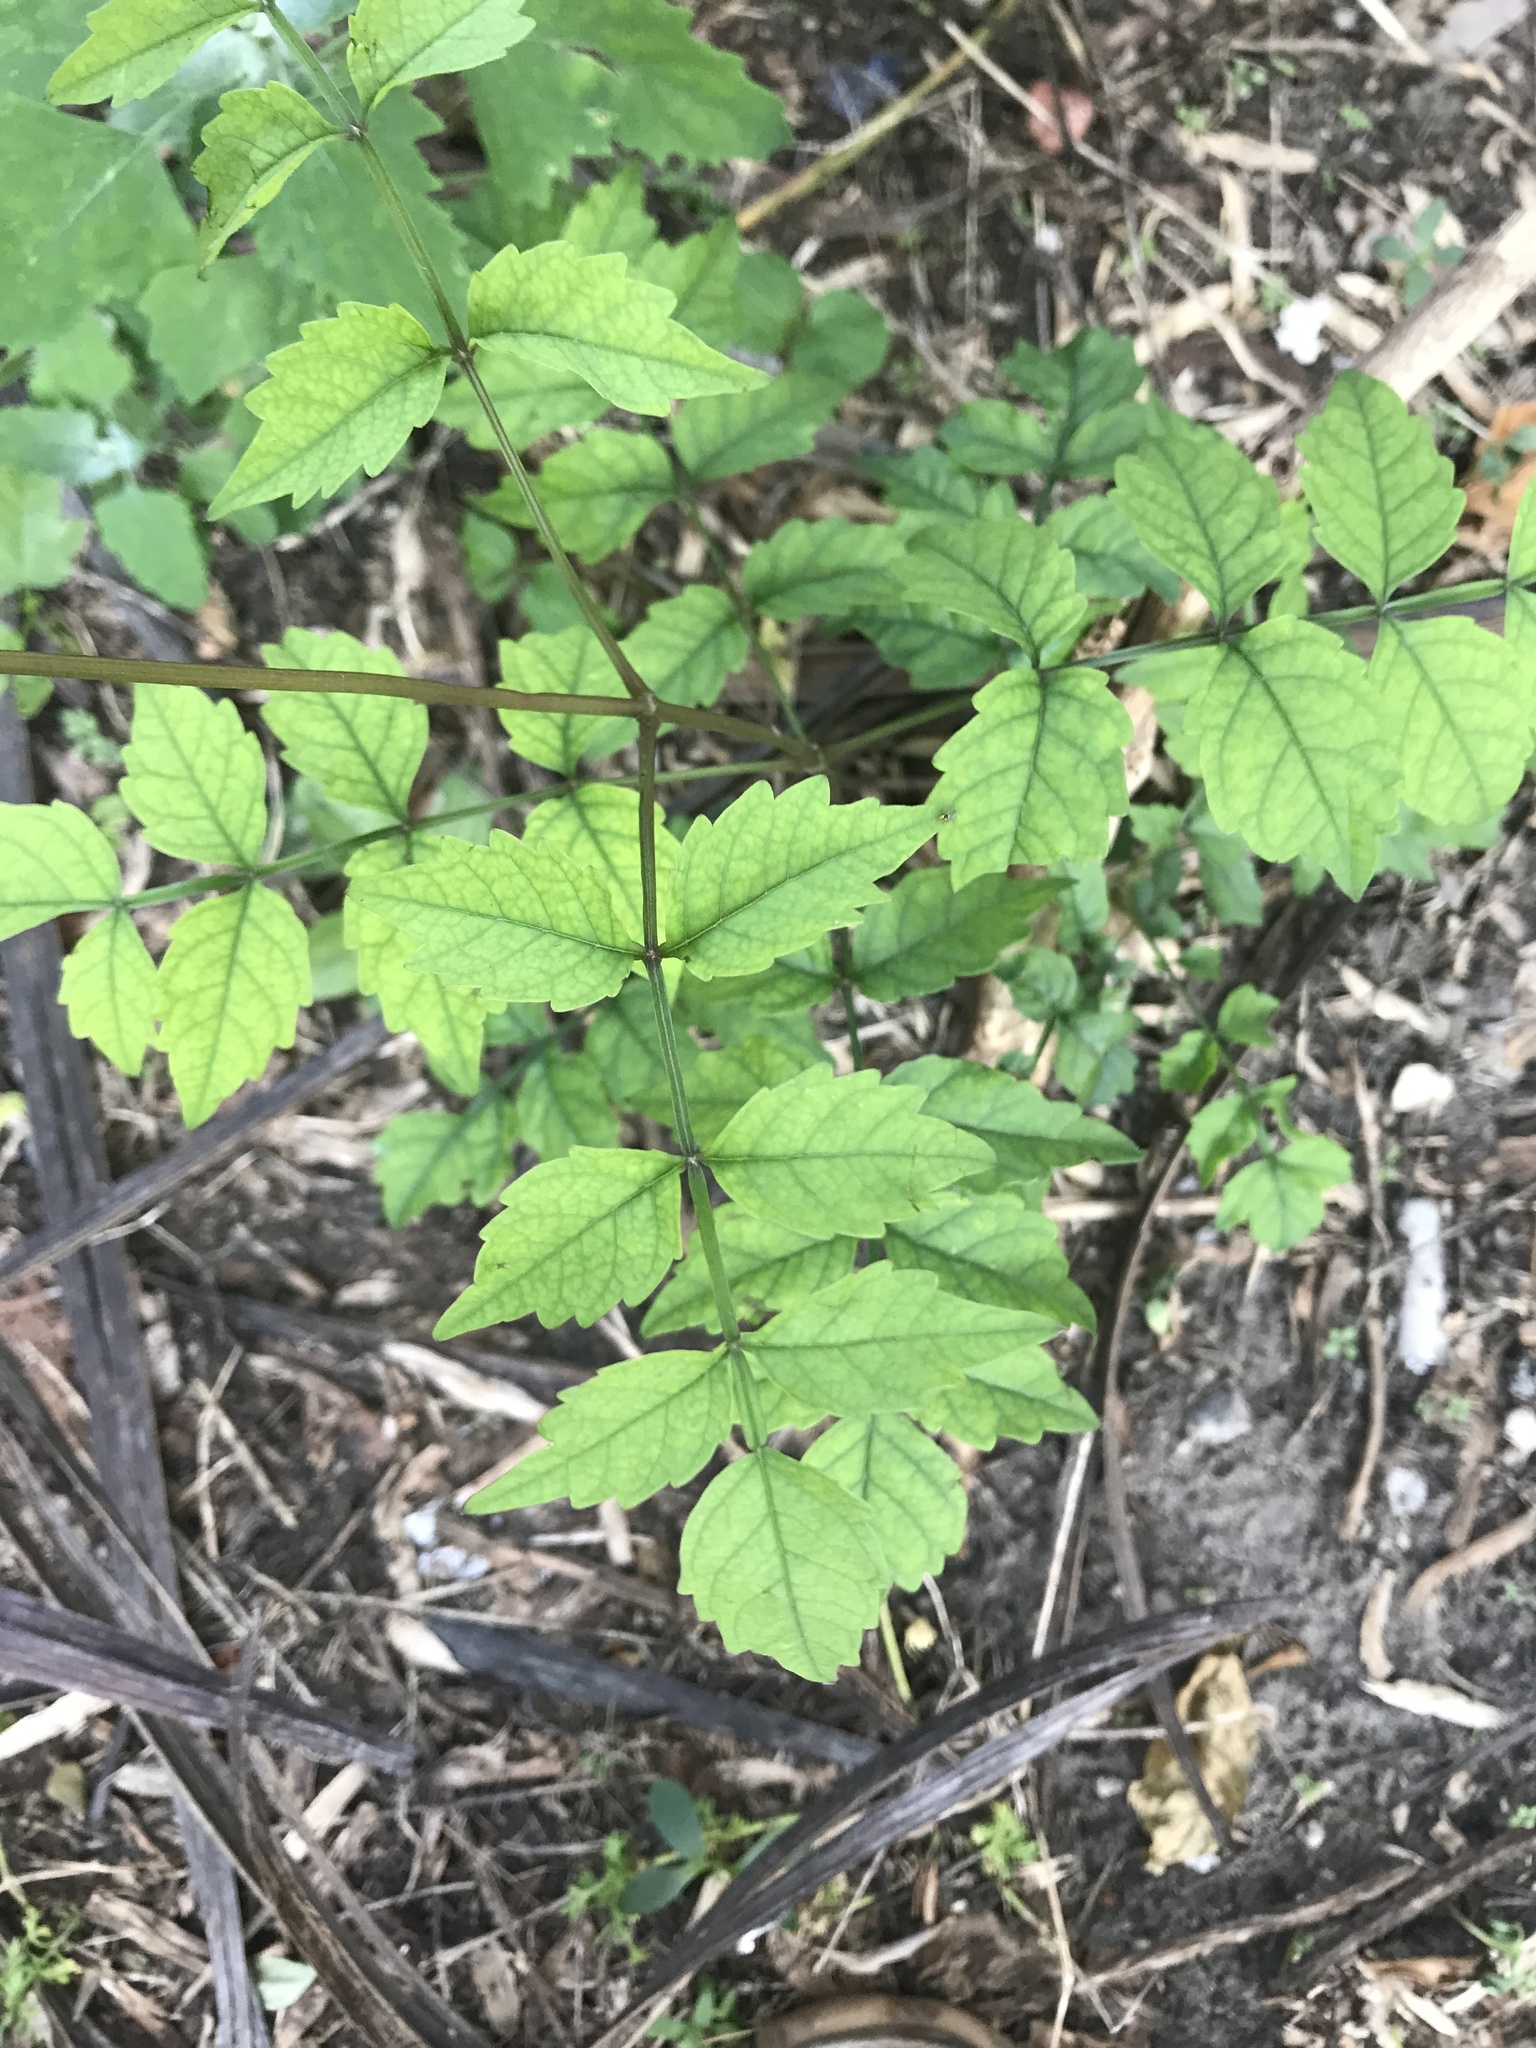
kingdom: Plantae
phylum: Tracheophyta
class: Magnoliopsida
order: Lamiales
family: Bignoniaceae
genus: Campsis
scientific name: Campsis radicans
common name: Trumpet-creeper
